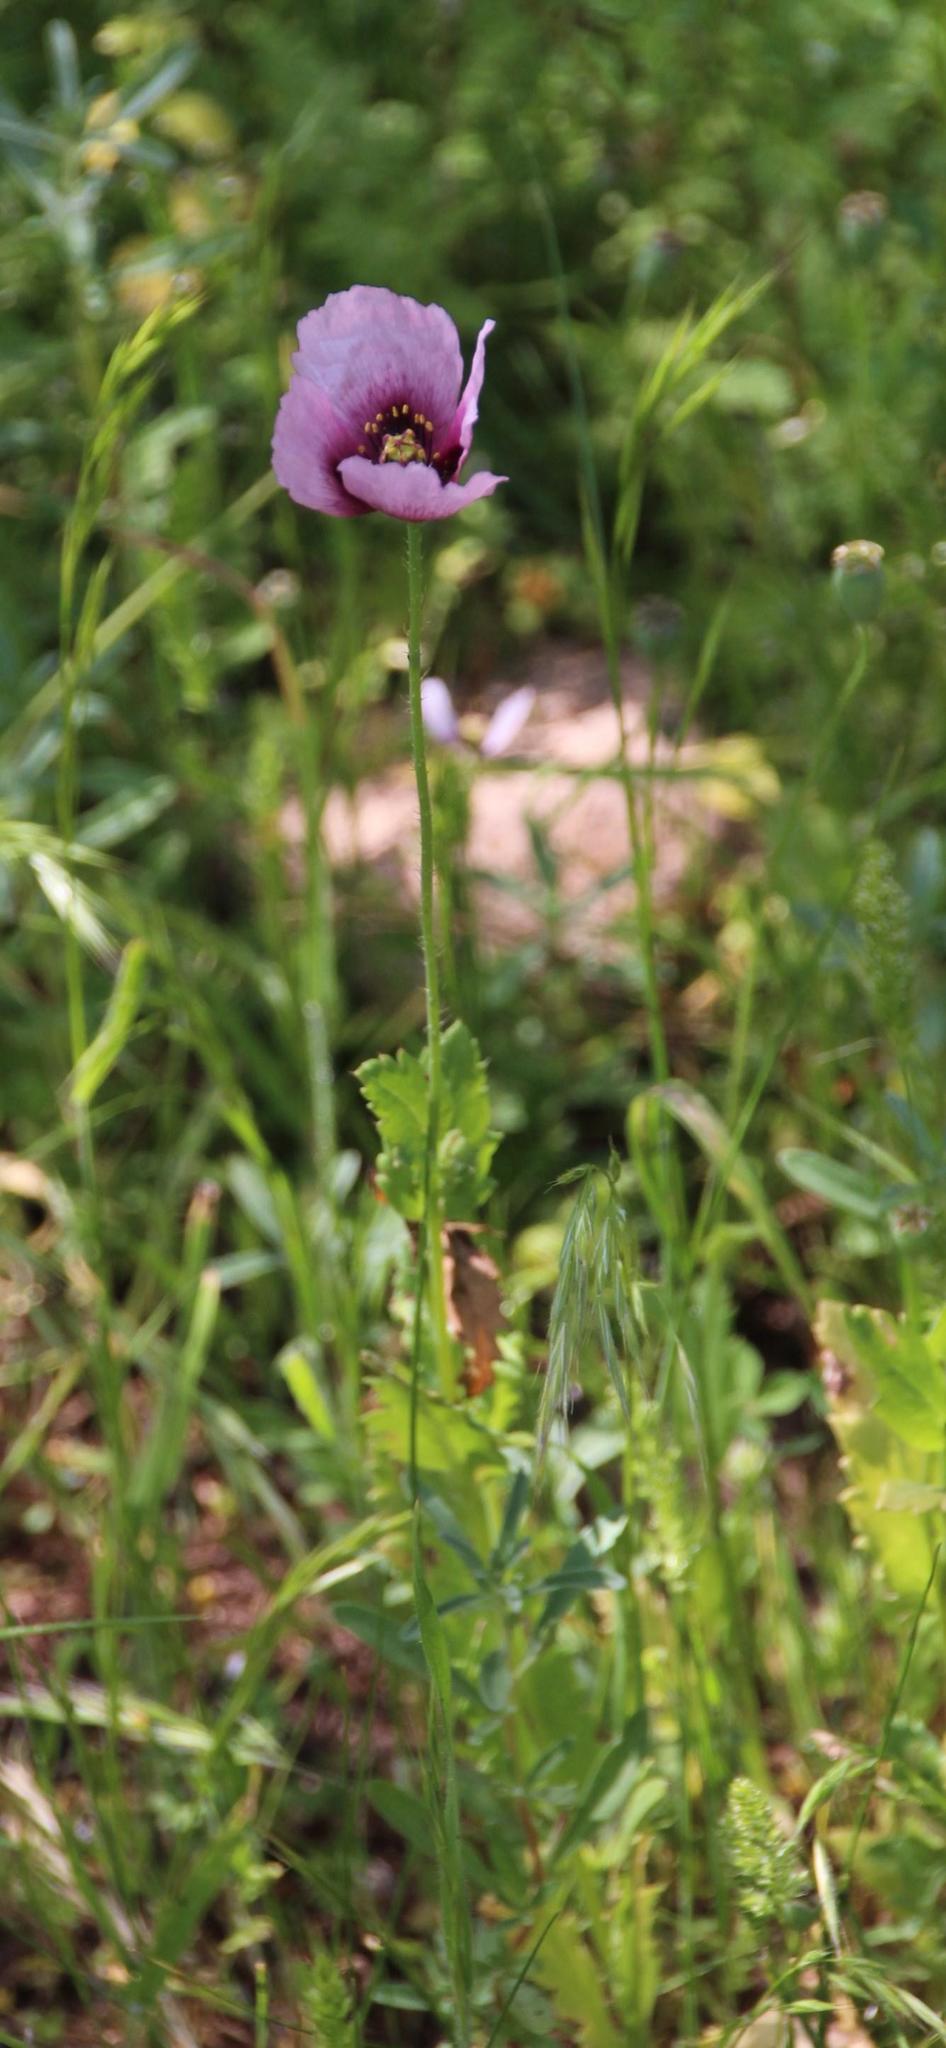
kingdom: Plantae
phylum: Tracheophyta
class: Magnoliopsida
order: Ranunculales
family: Papaveraceae
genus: Papaver
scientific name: Papaver somniferum
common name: Opium poppy
